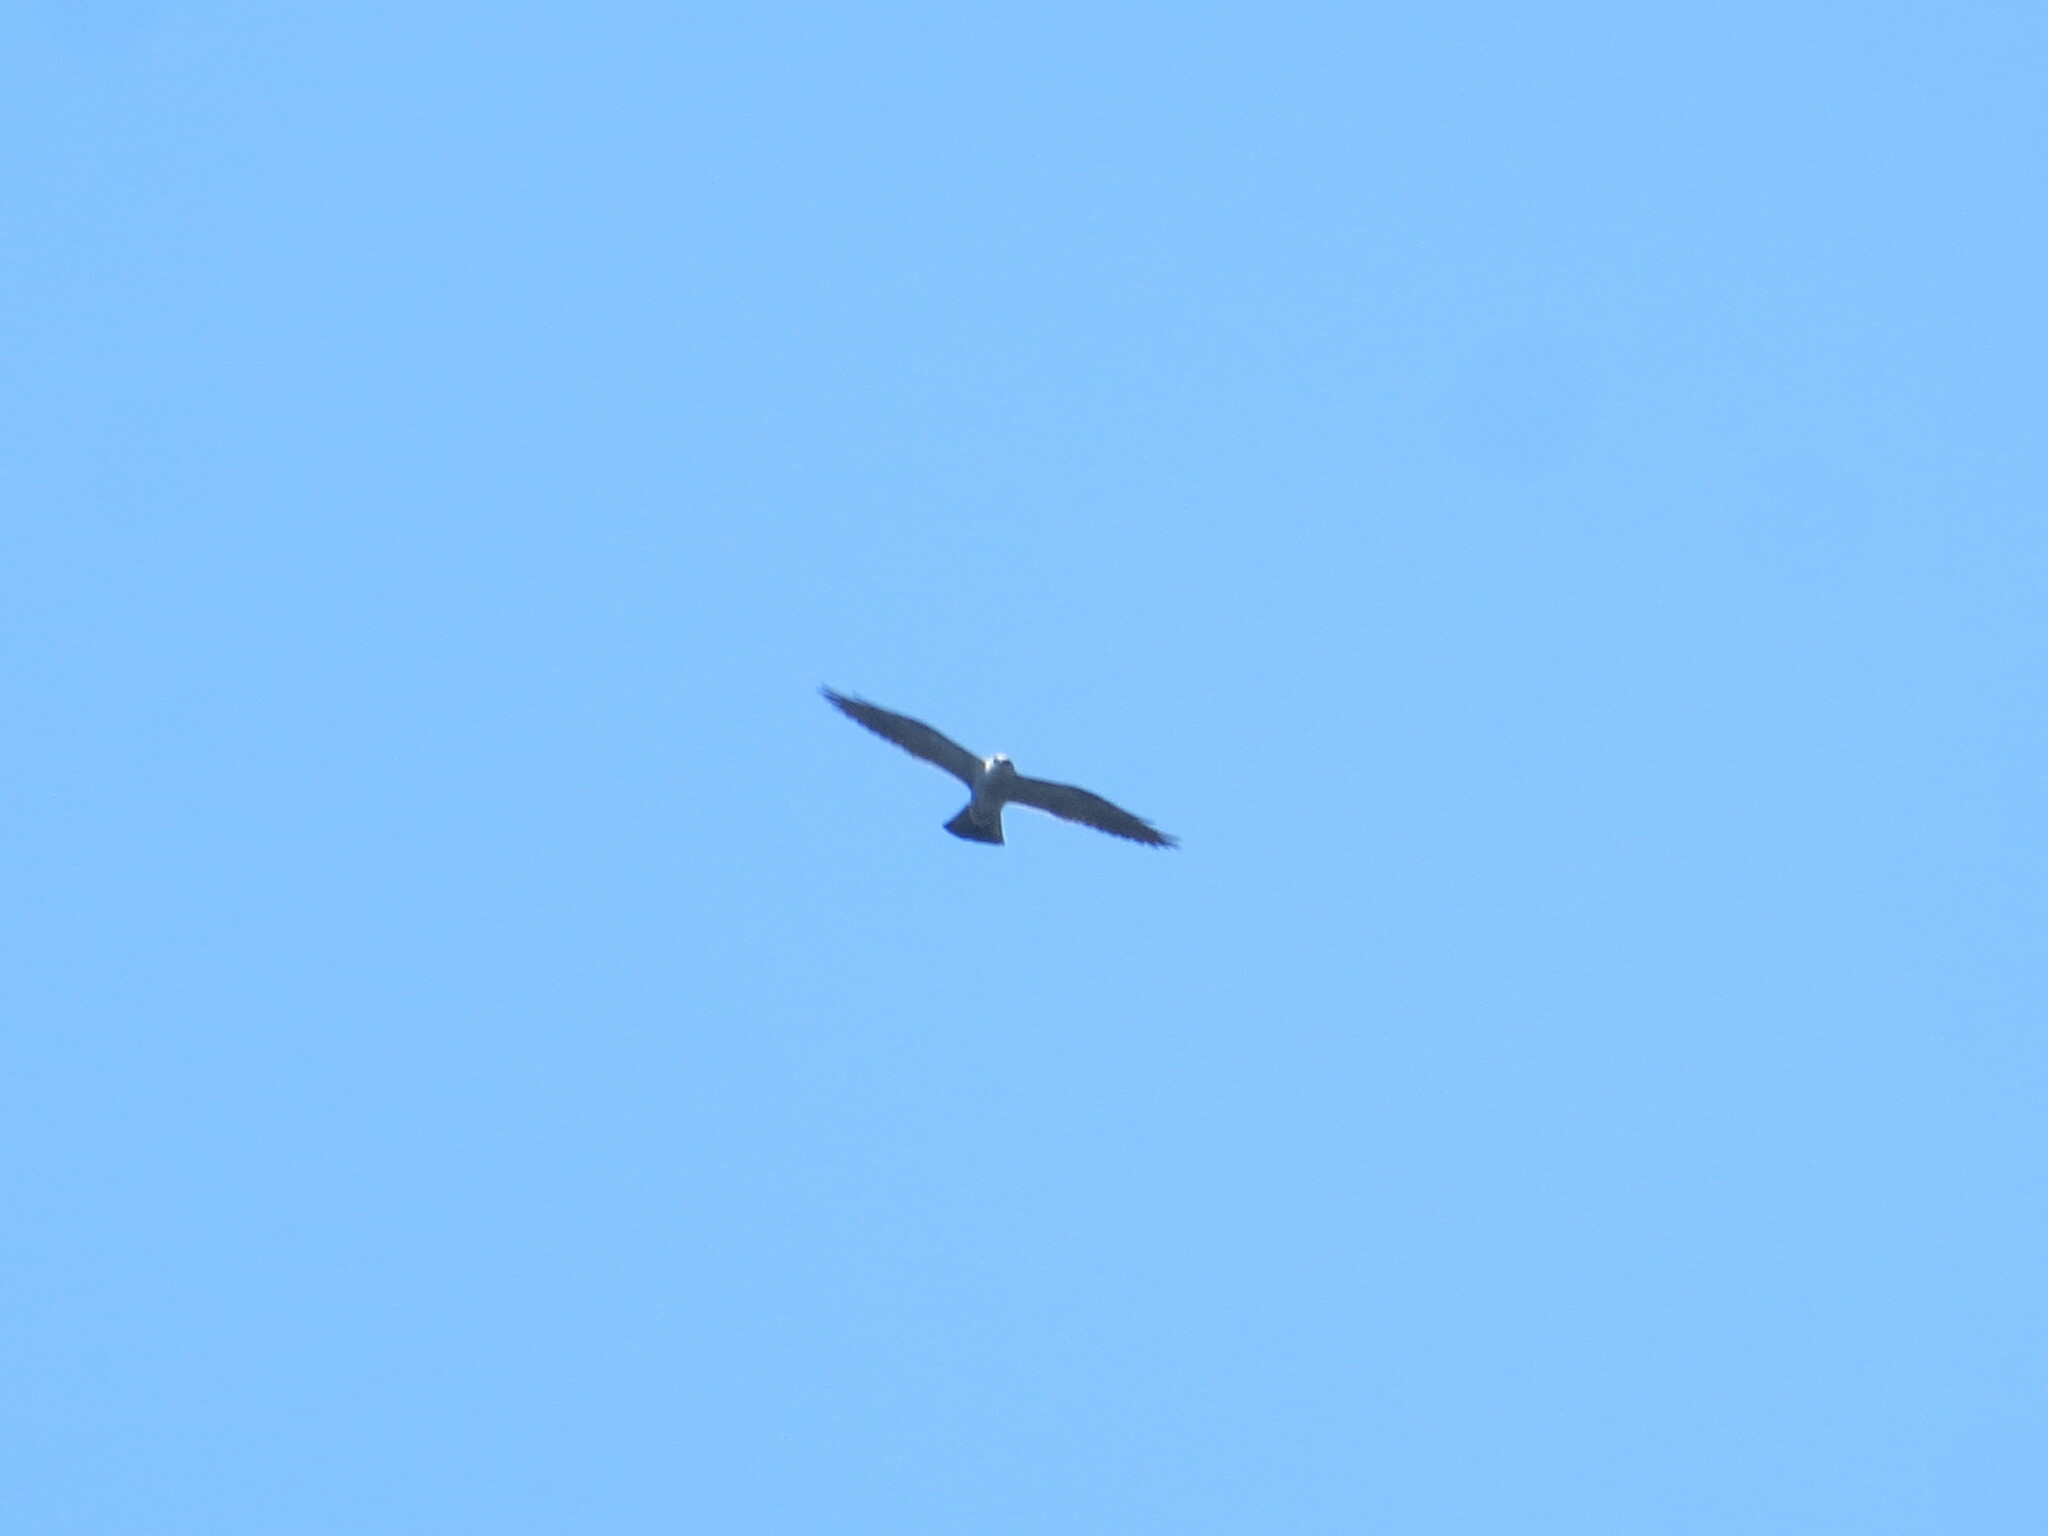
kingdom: Animalia
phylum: Chordata
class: Aves
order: Accipitriformes
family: Accipitridae
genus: Ictinia
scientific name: Ictinia mississippiensis
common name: Mississippi kite
